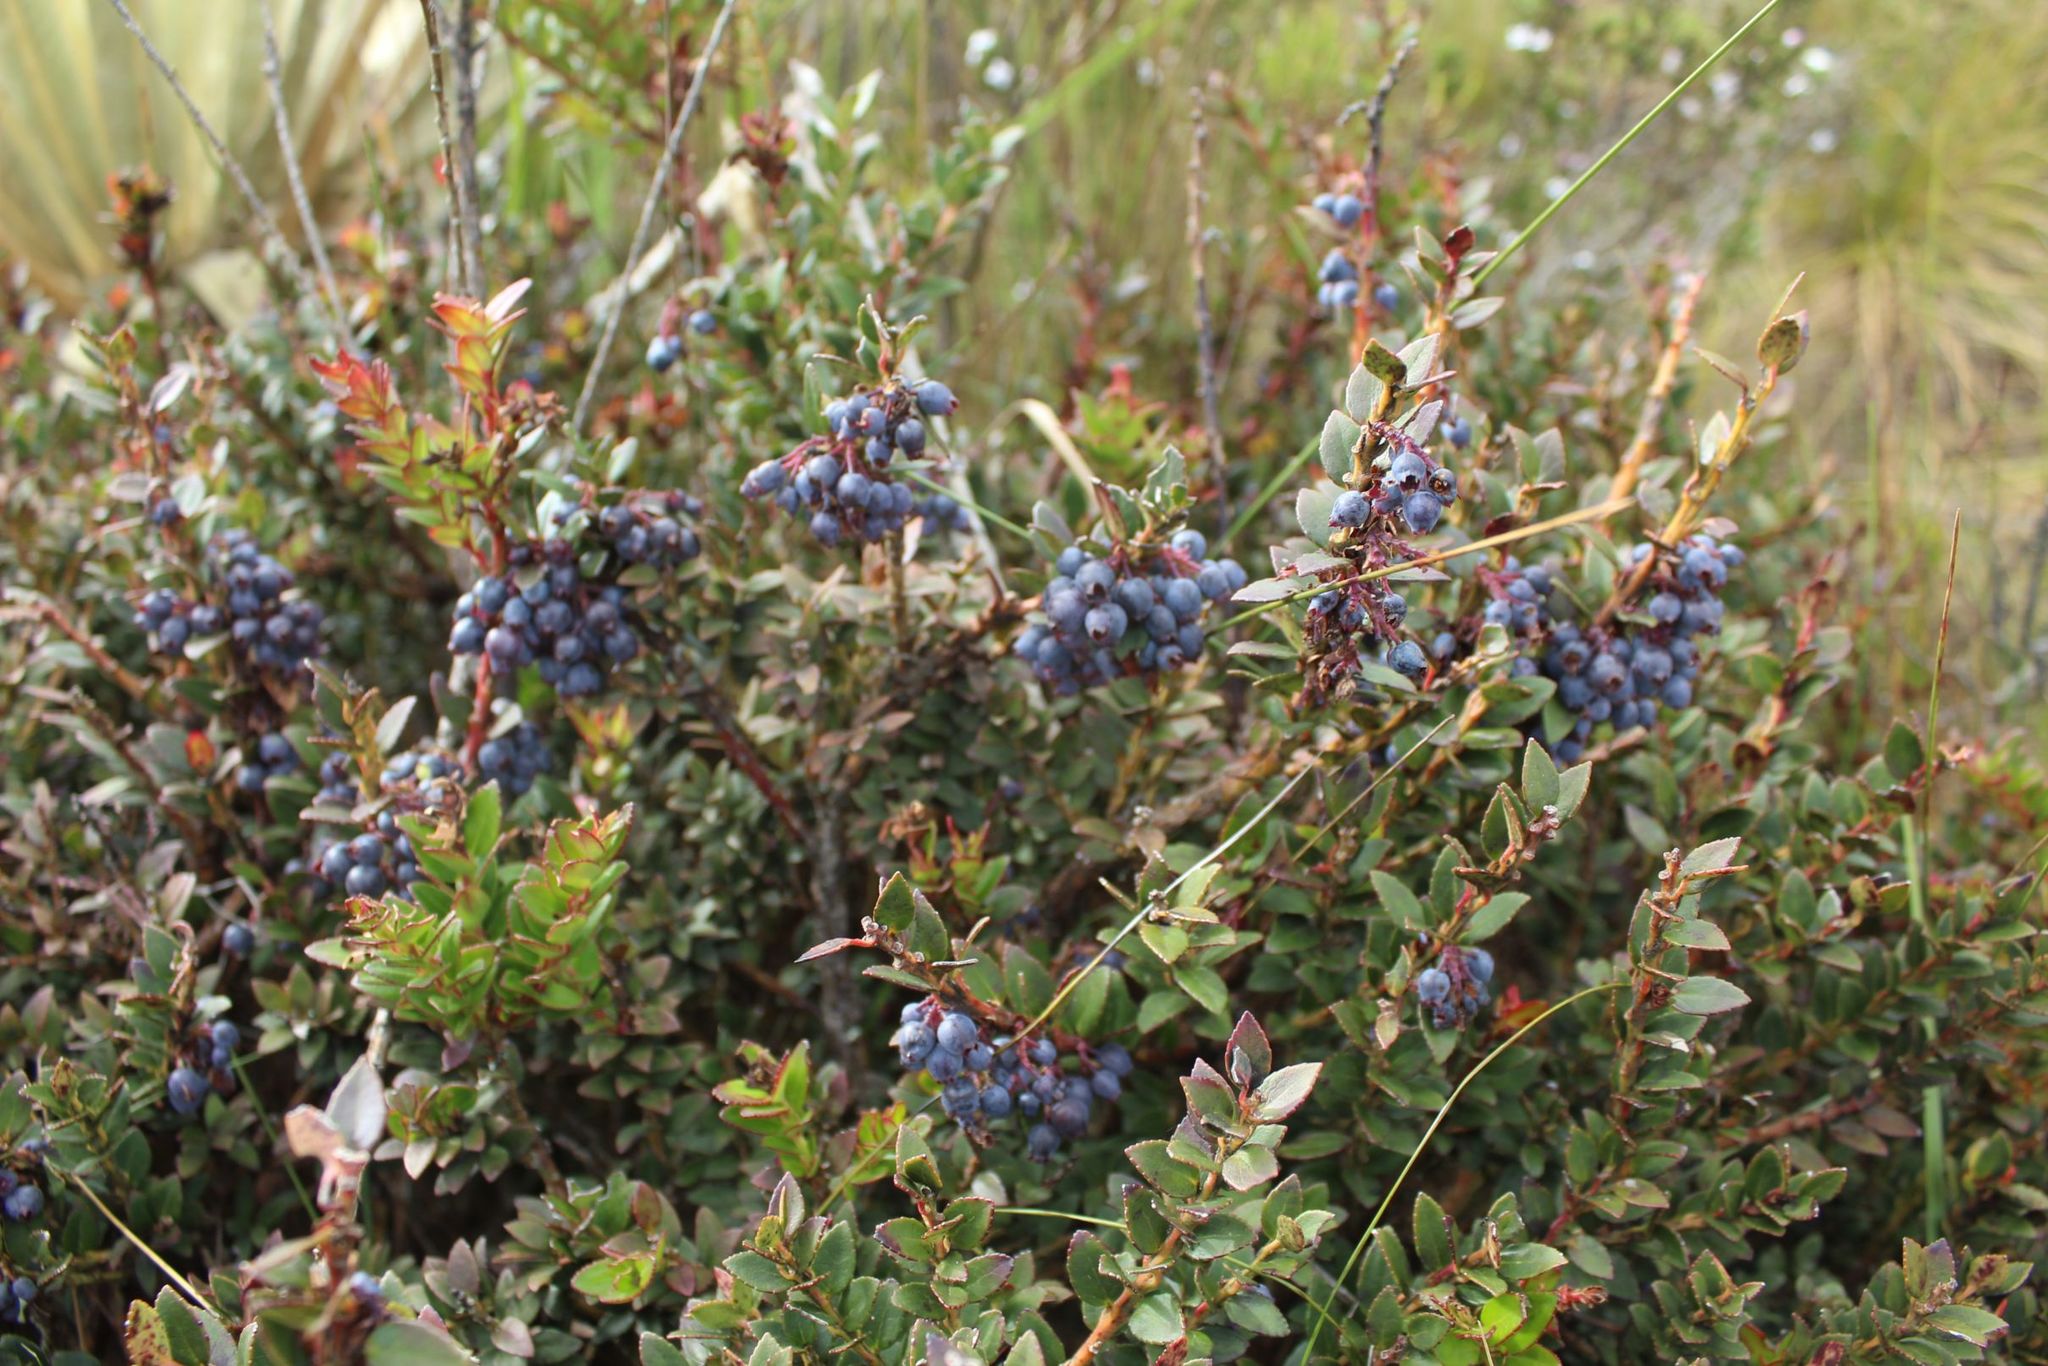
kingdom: Plantae
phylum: Tracheophyta
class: Magnoliopsida
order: Ericales
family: Ericaceae
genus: Vaccinium
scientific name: Vaccinium floribundum
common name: Colombian blueberry
